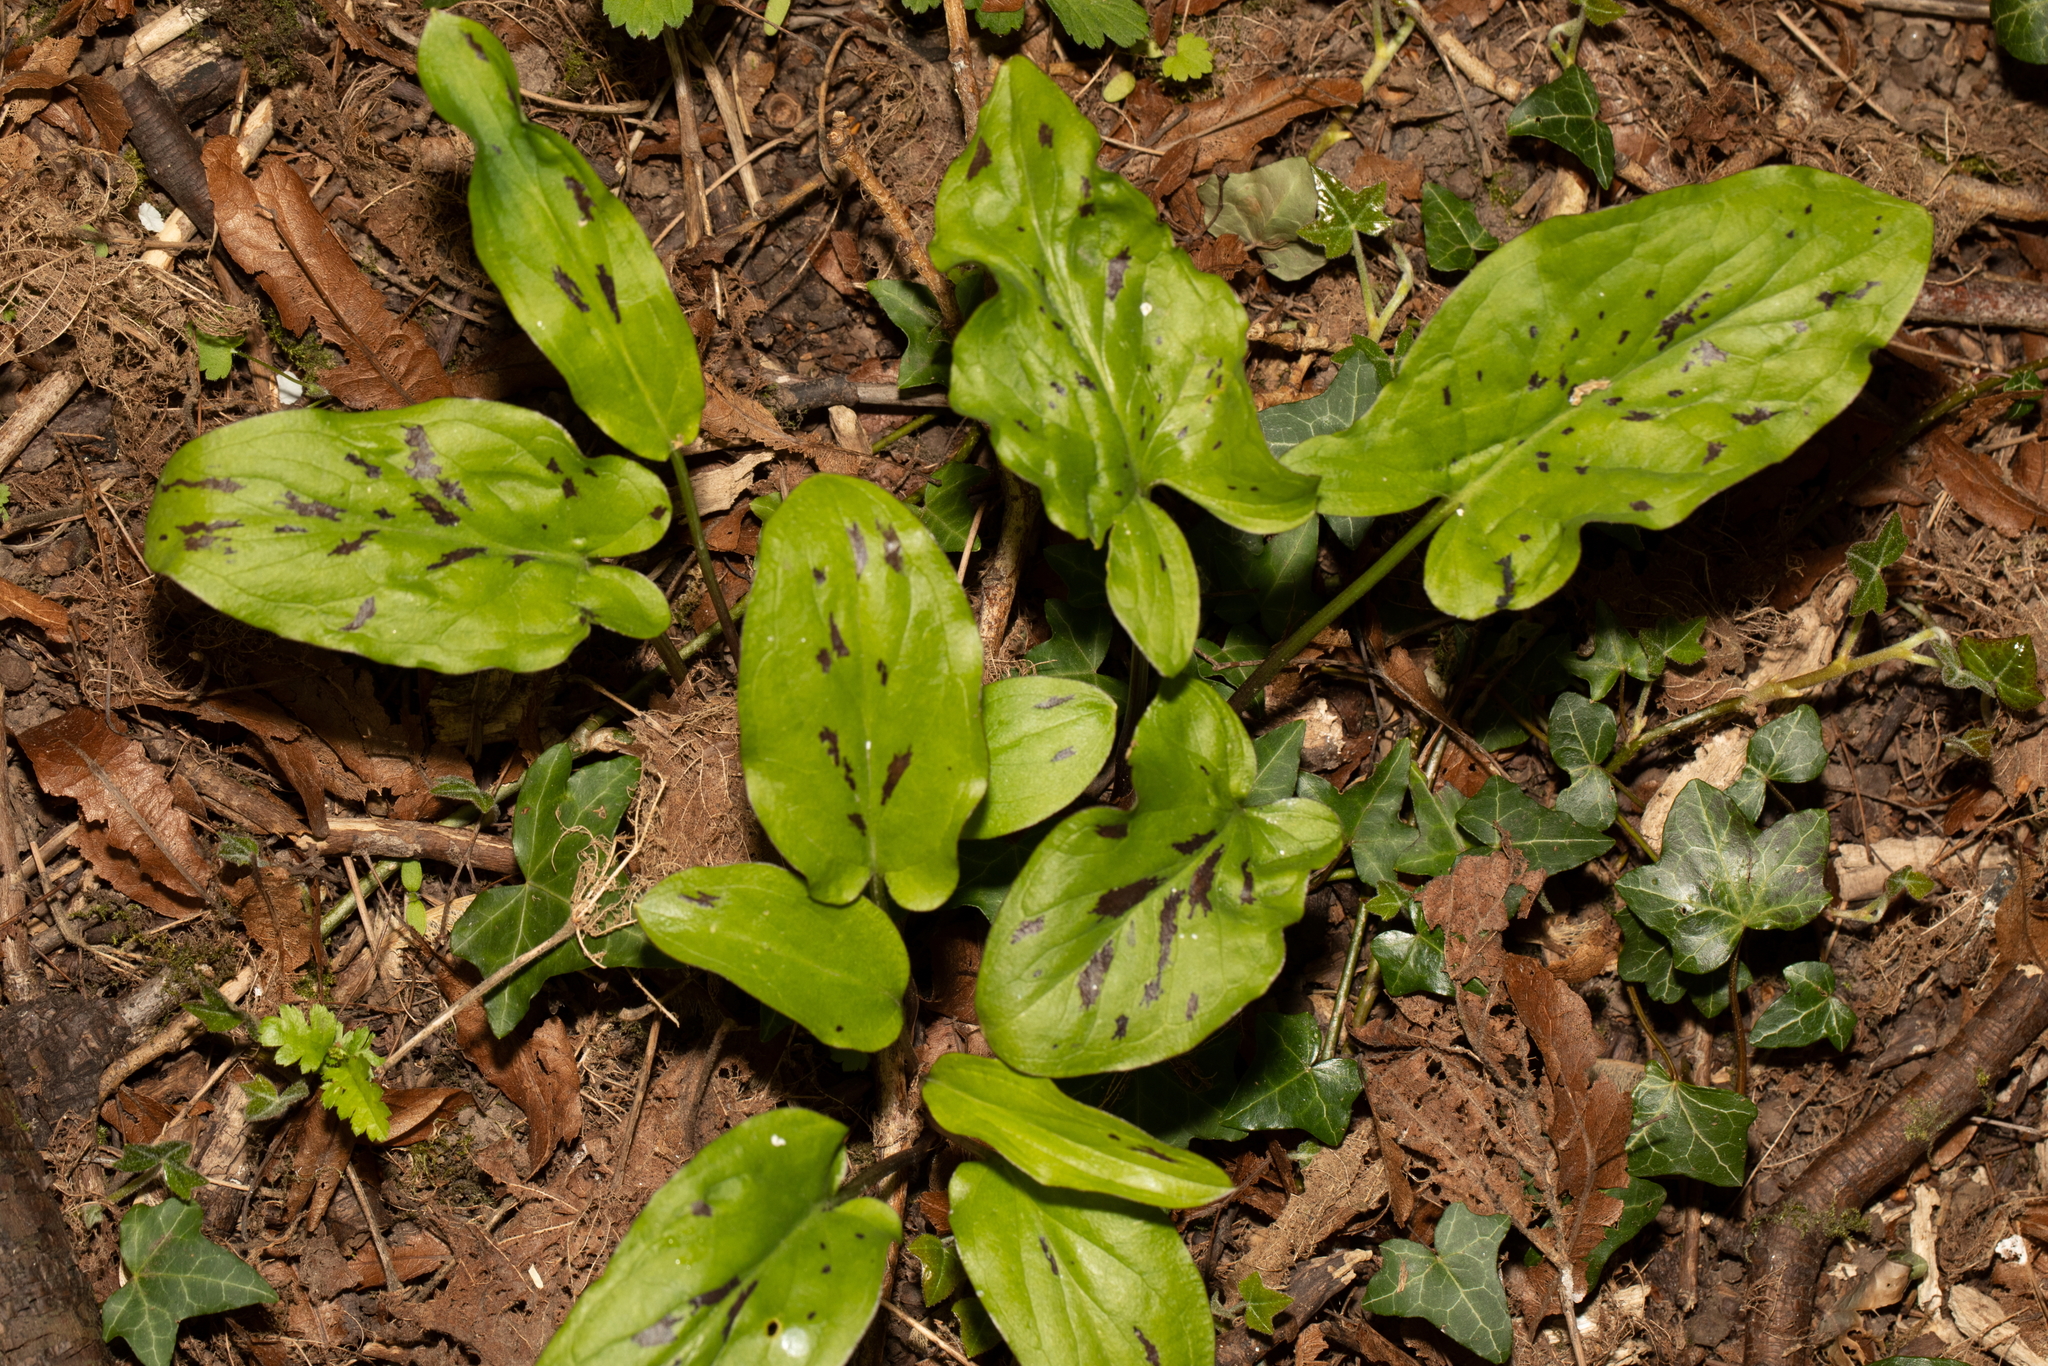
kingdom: Plantae
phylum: Tracheophyta
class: Liliopsida
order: Alismatales
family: Araceae
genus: Arum
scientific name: Arum maculatum
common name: Lords-and-ladies
